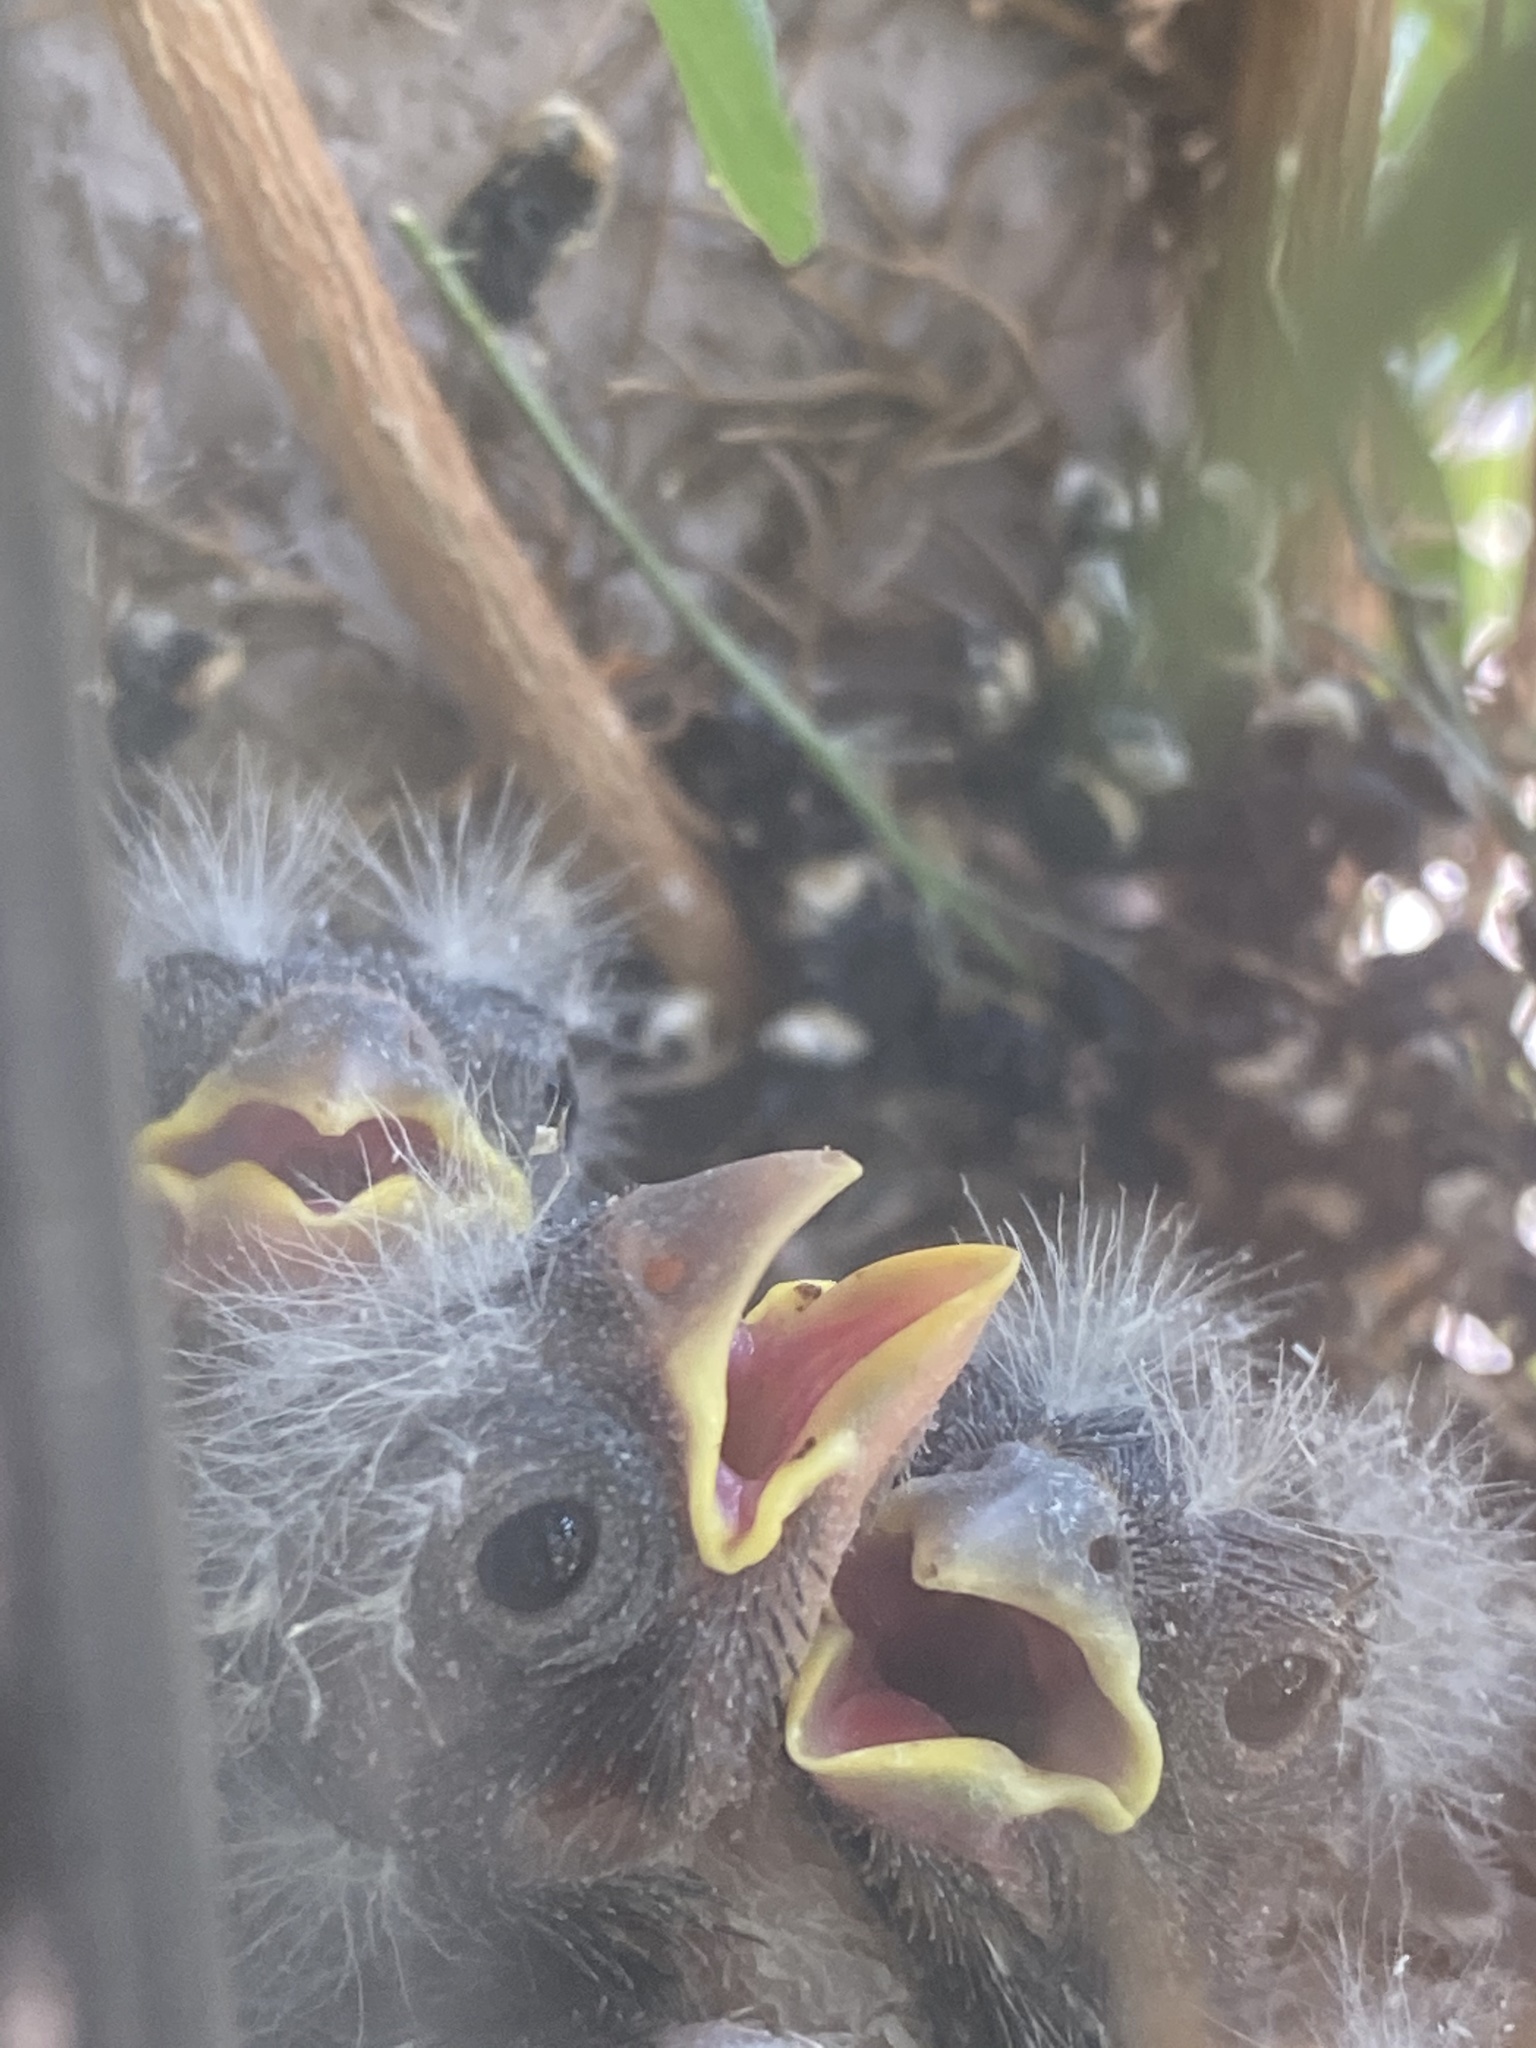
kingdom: Animalia
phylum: Chordata
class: Aves
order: Passeriformes
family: Fringillidae
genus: Haemorhous
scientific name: Haemorhous mexicanus
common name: House finch
